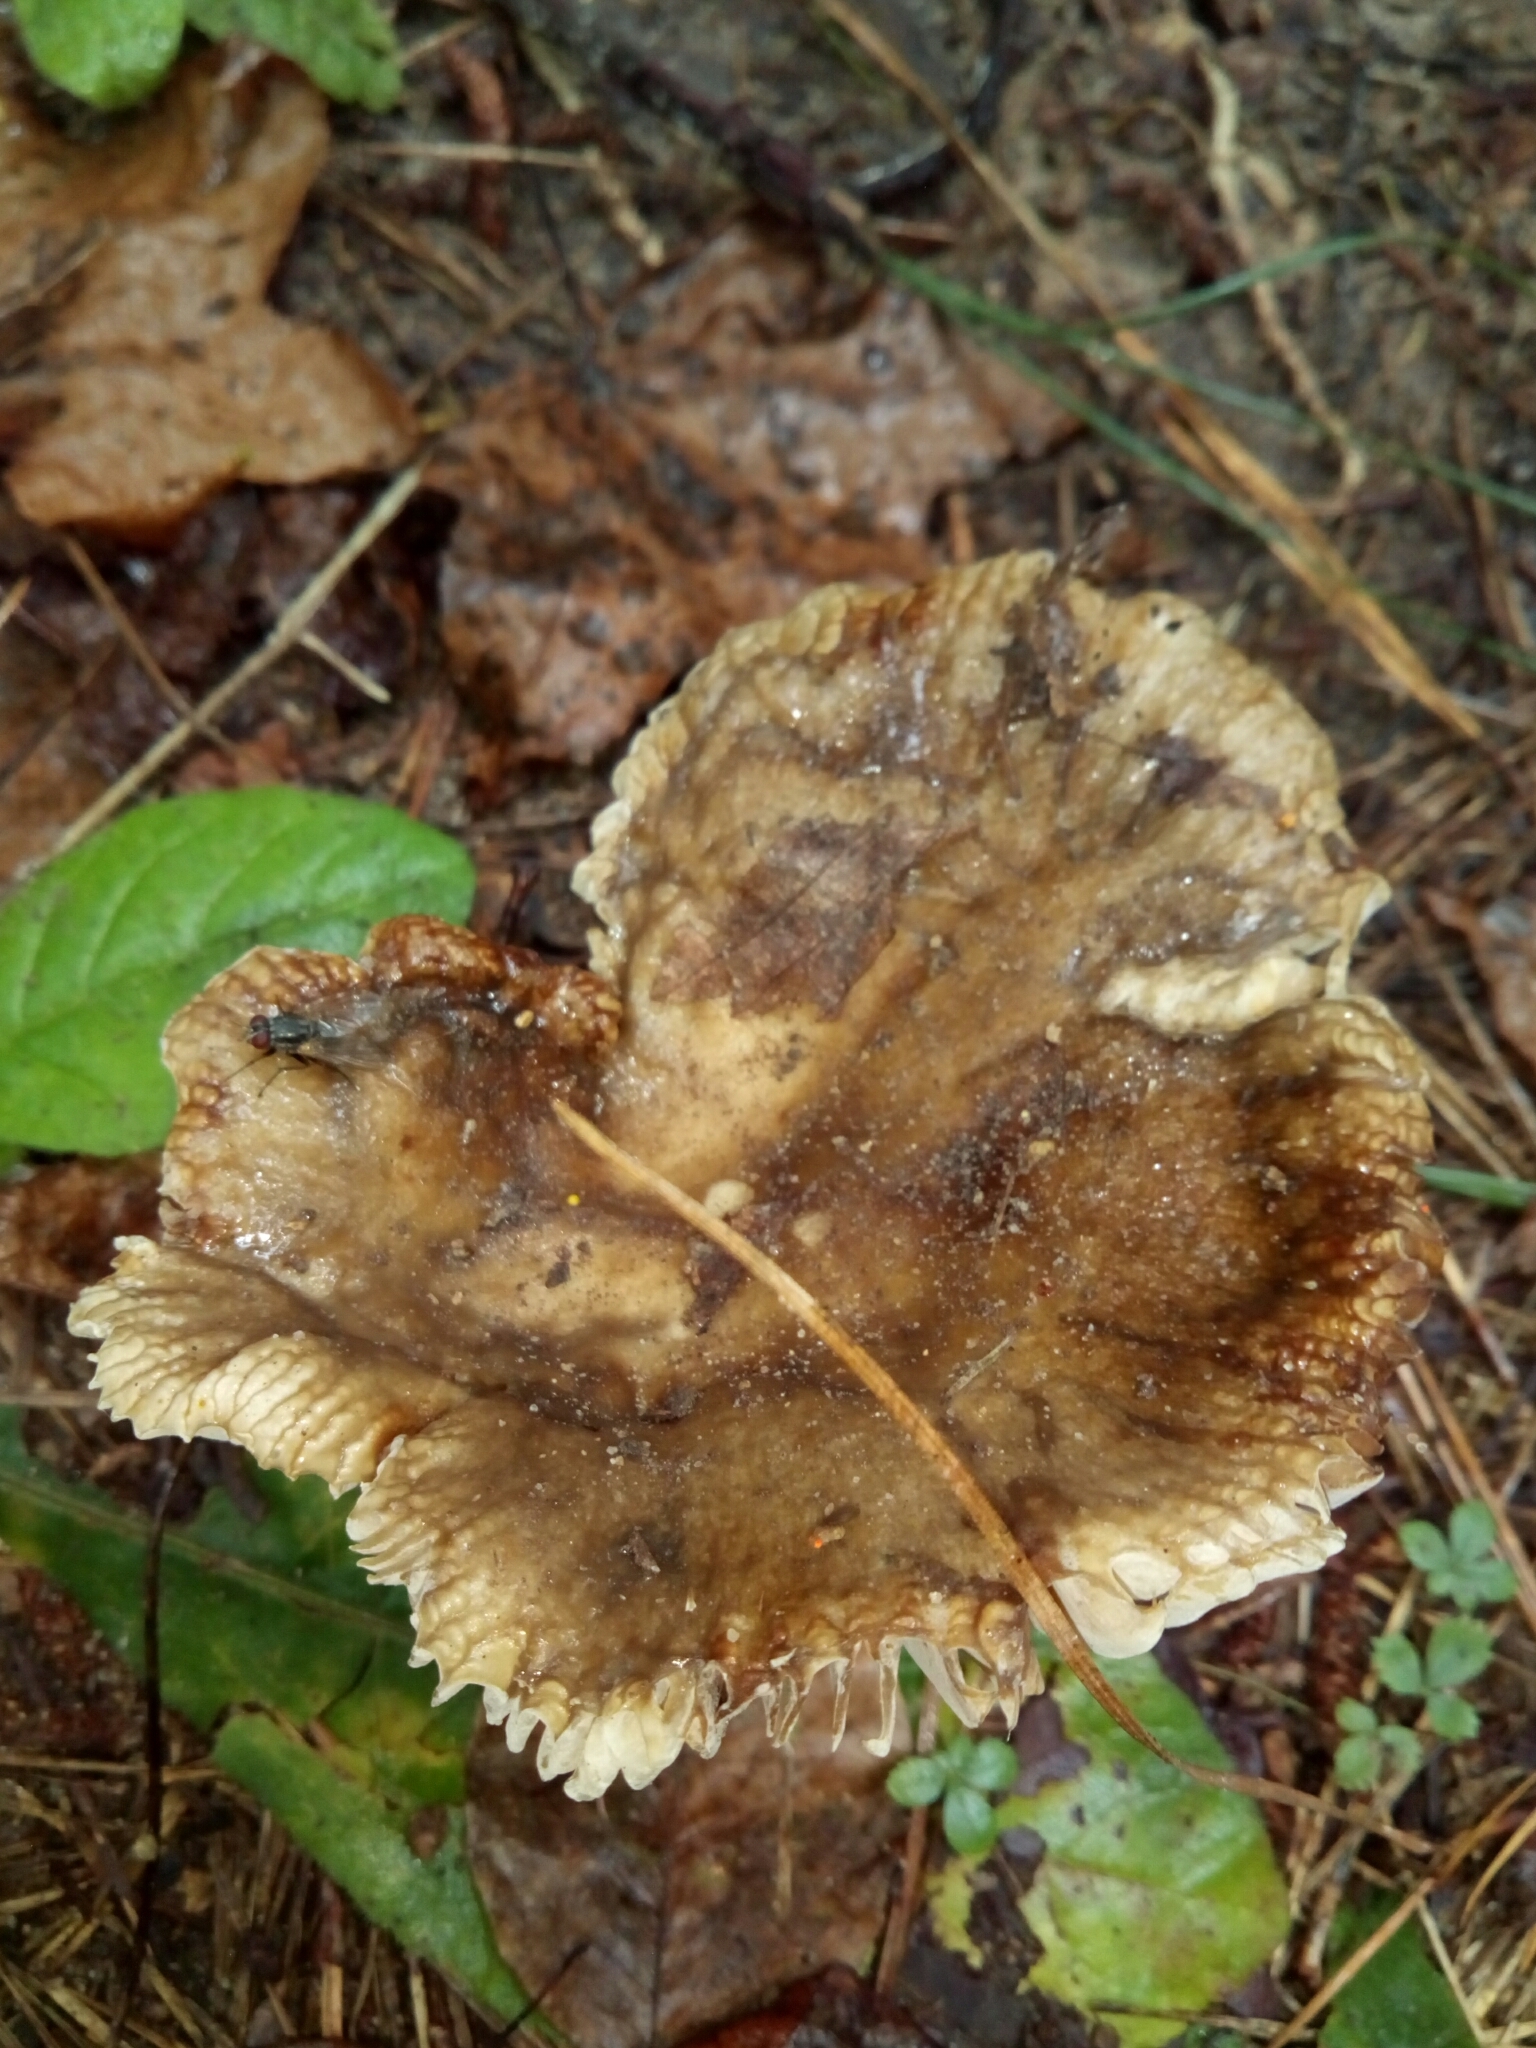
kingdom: Fungi
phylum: Basidiomycota
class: Agaricomycetes
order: Russulales
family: Russulaceae
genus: Russula
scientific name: Russula brevipes
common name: Short-stemmed russula
